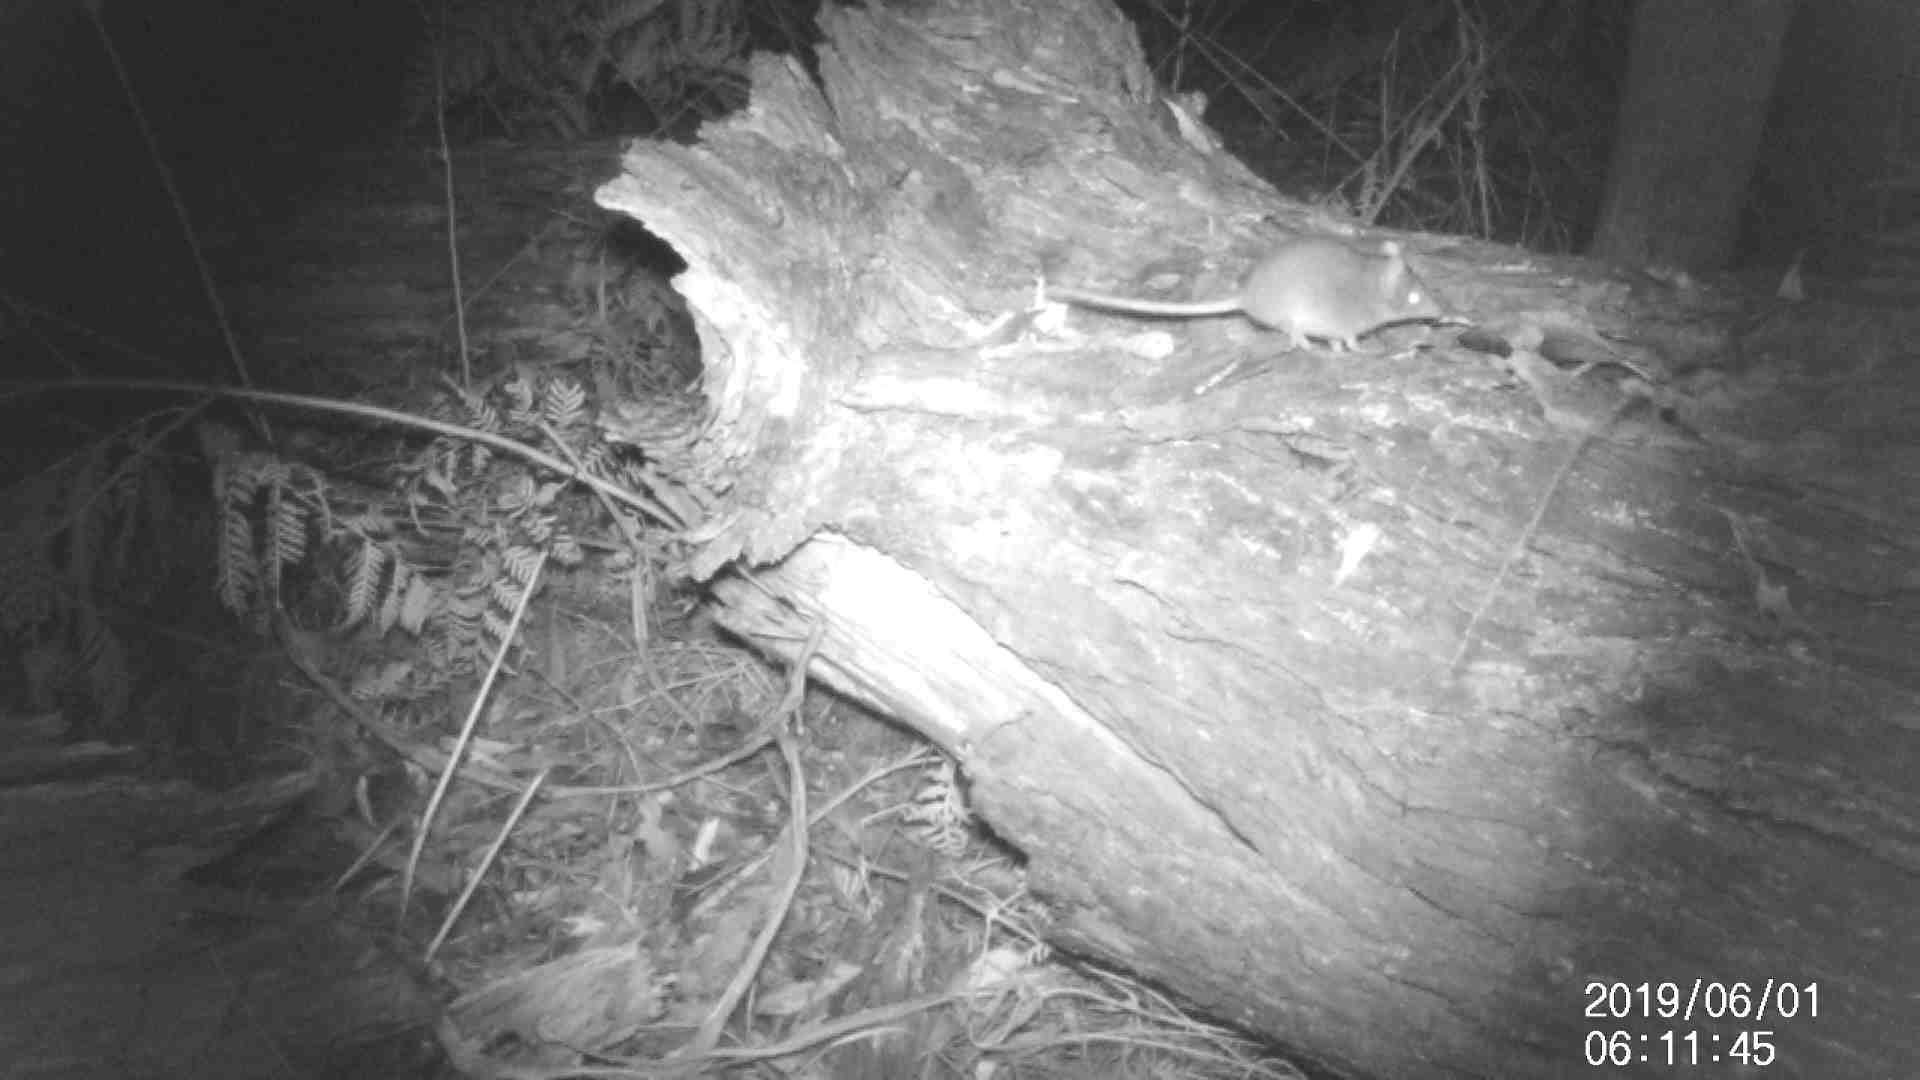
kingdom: Animalia
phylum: Chordata
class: Mammalia
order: Dasyuromorphia
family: Dasyuridae
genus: Antechinus
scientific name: Antechinus agilis
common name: Agile antechinus
